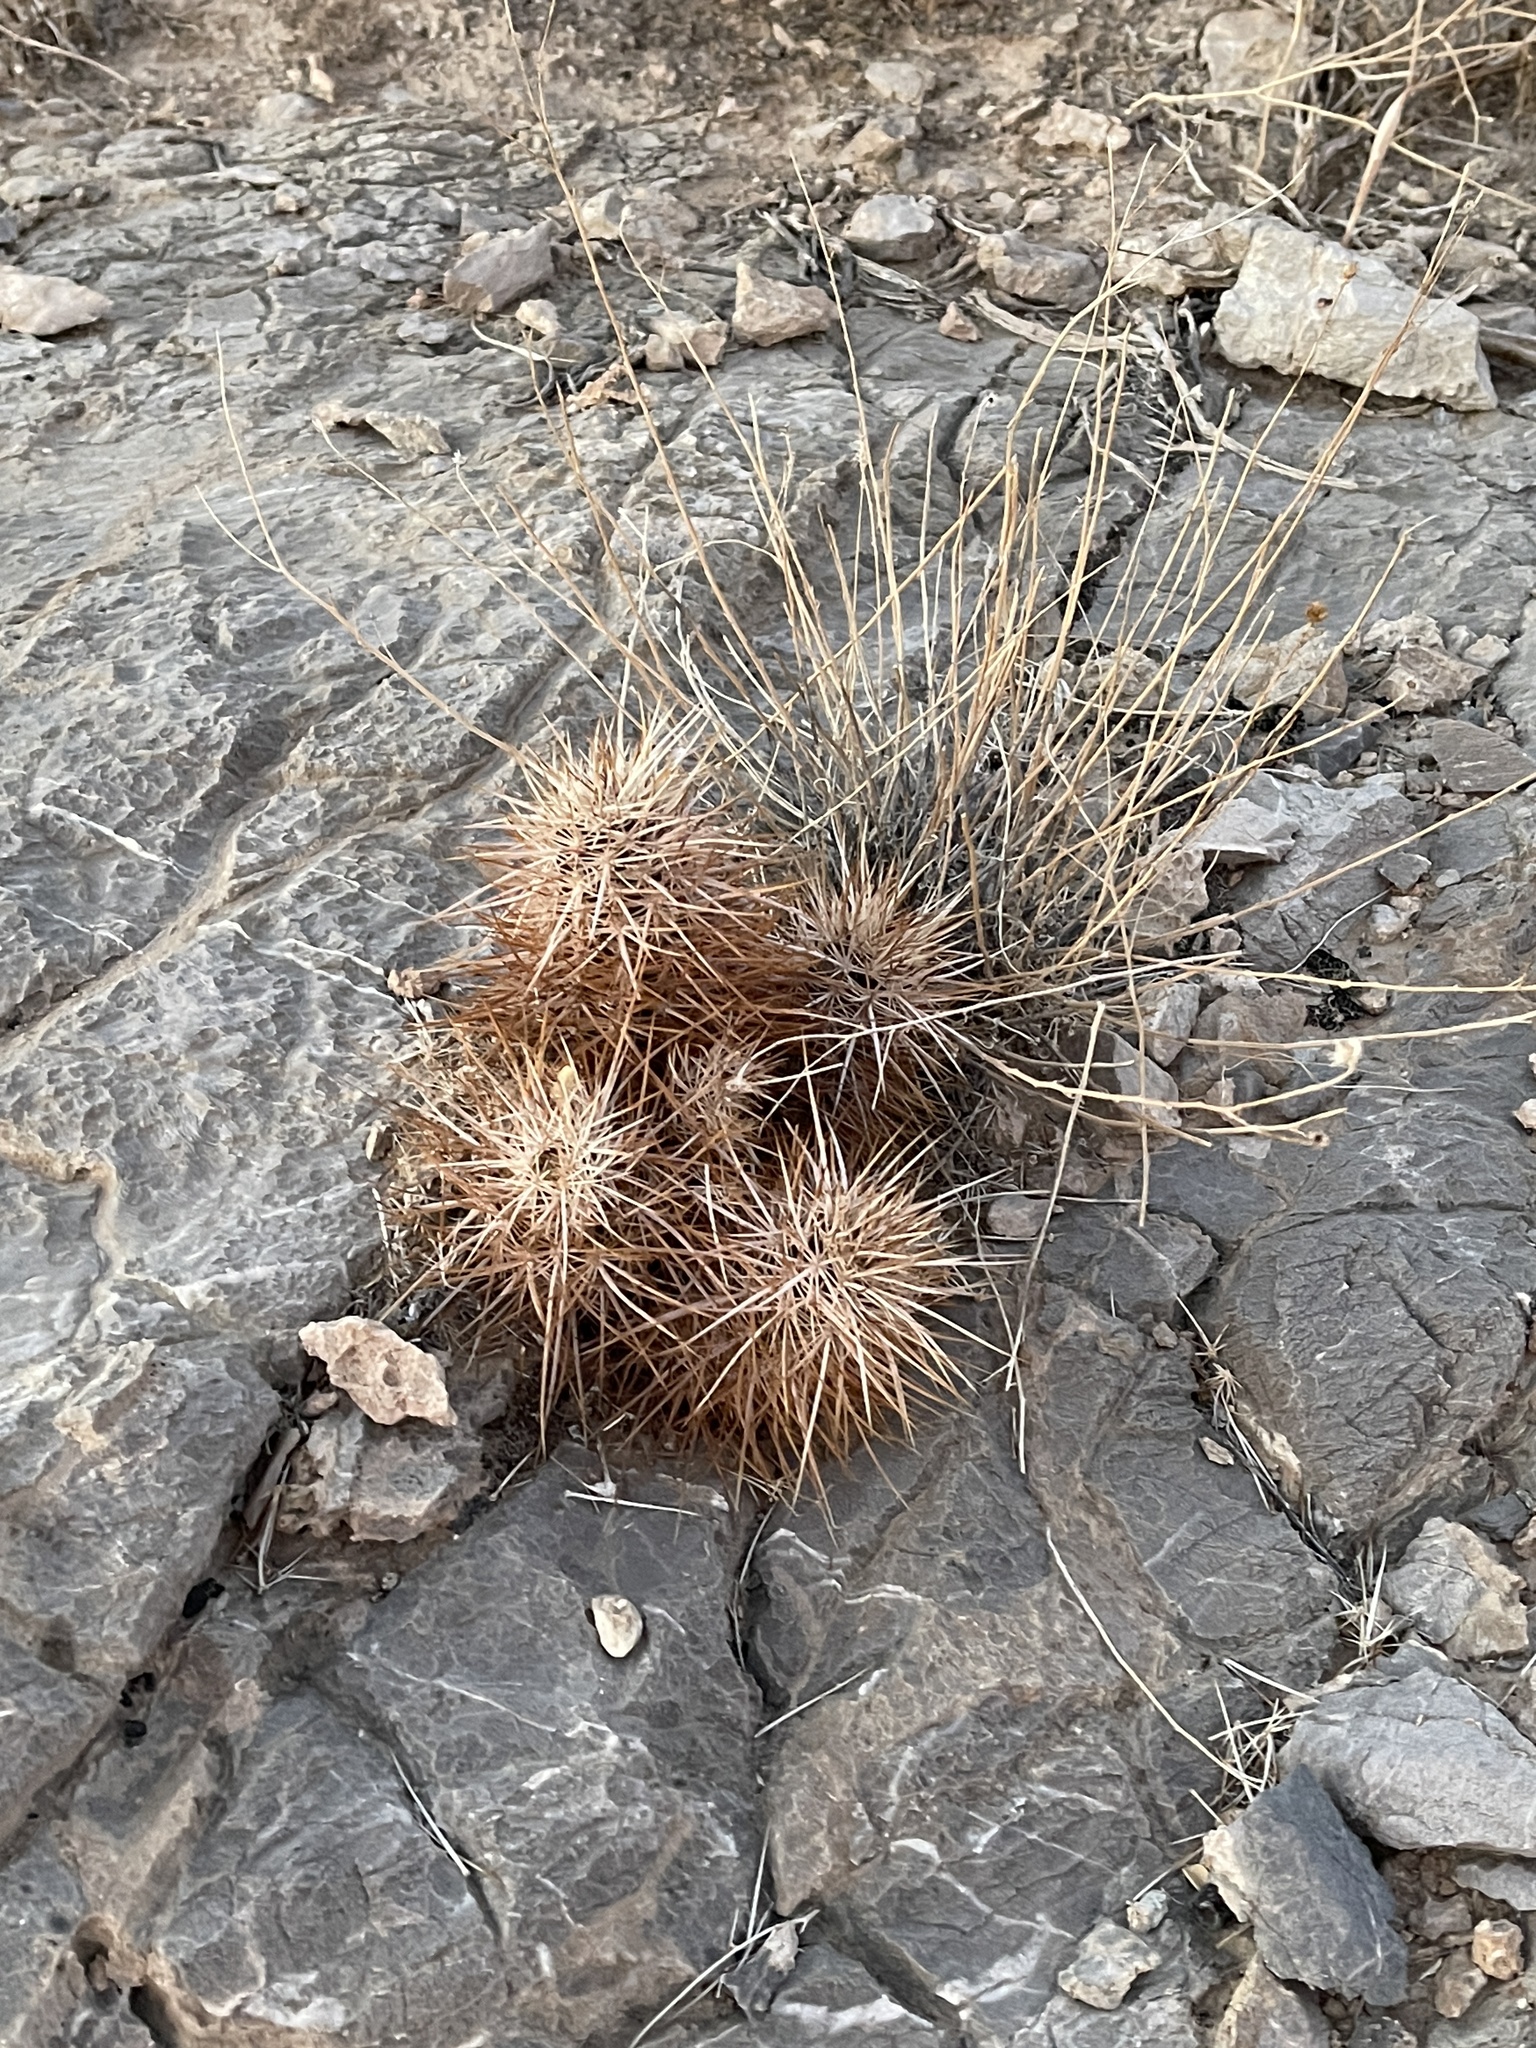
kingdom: Plantae
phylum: Tracheophyta
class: Magnoliopsida
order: Caryophyllales
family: Cactaceae
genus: Echinocereus
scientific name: Echinocereus engelmannii
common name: Engelmann's hedgehog cactus
